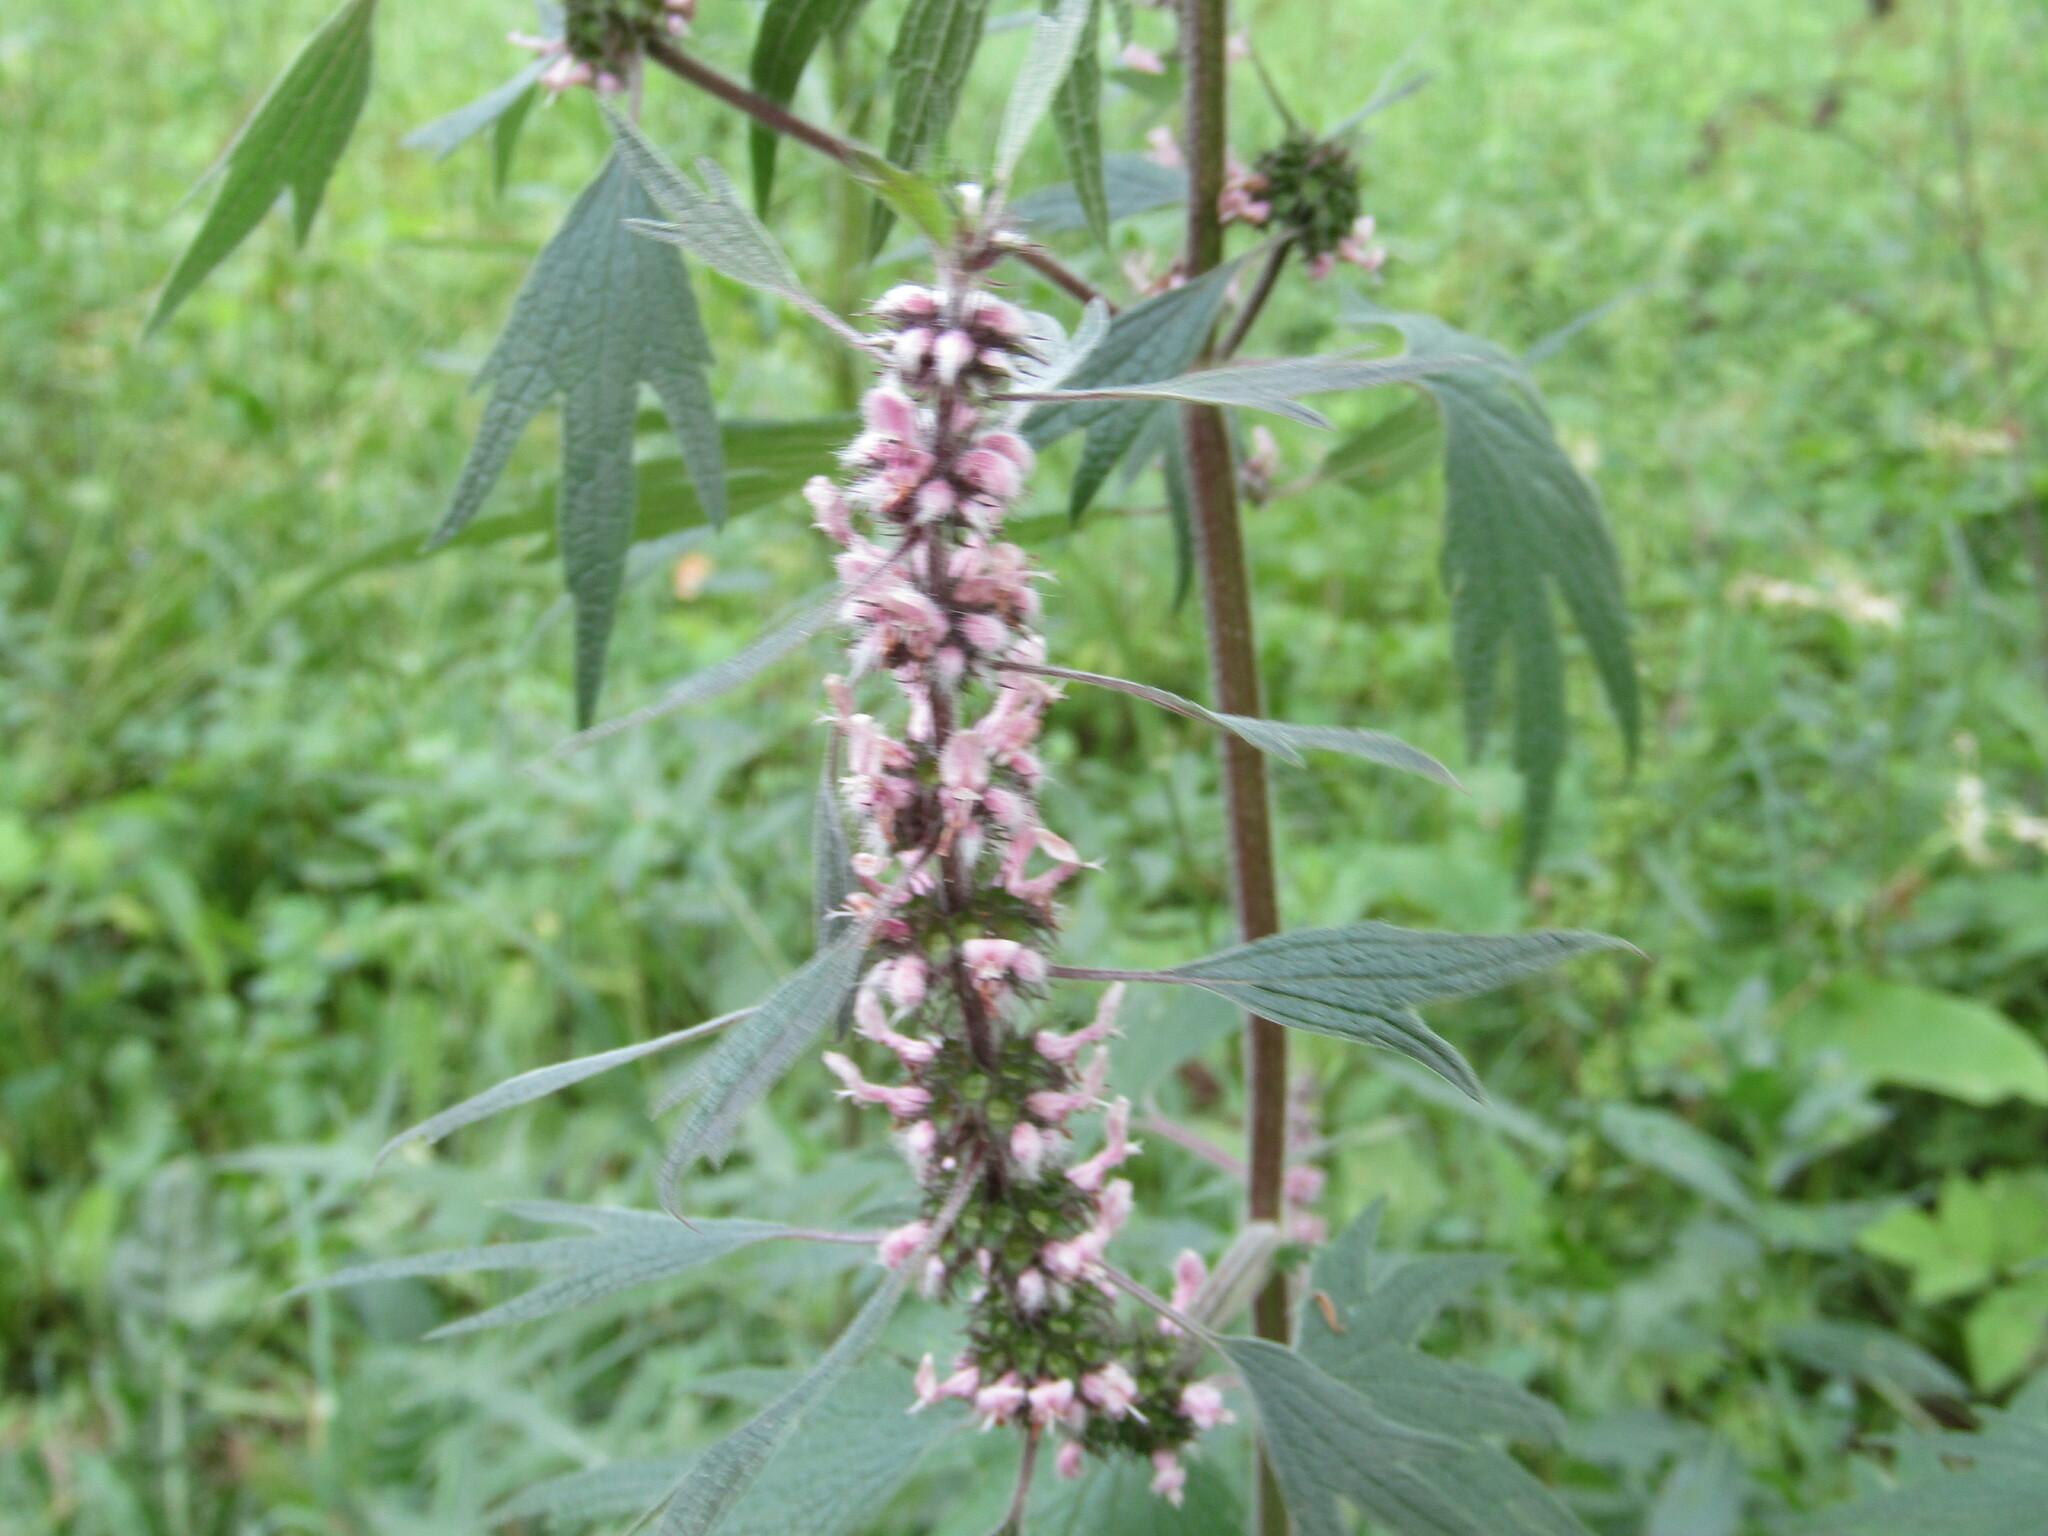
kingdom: Plantae
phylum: Tracheophyta
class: Magnoliopsida
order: Lamiales
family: Lamiaceae
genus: Leonurus
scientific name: Leonurus quinquelobatus
